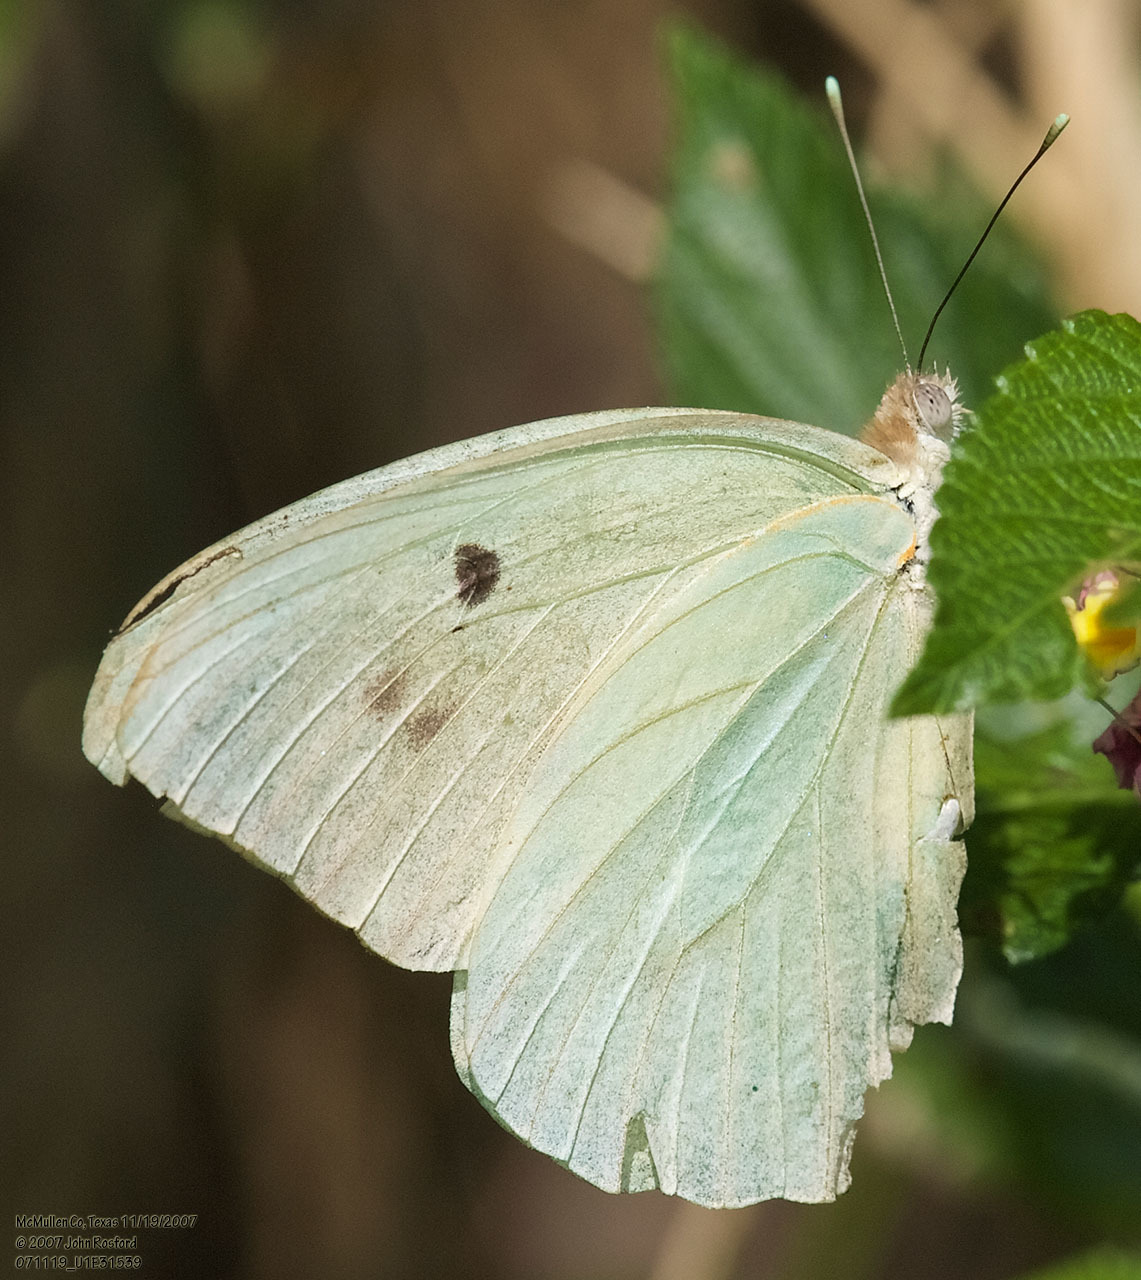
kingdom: Animalia
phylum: Arthropoda
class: Insecta
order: Lepidoptera
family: Pieridae
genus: Ganyra
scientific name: Ganyra josephina
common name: Giant white
